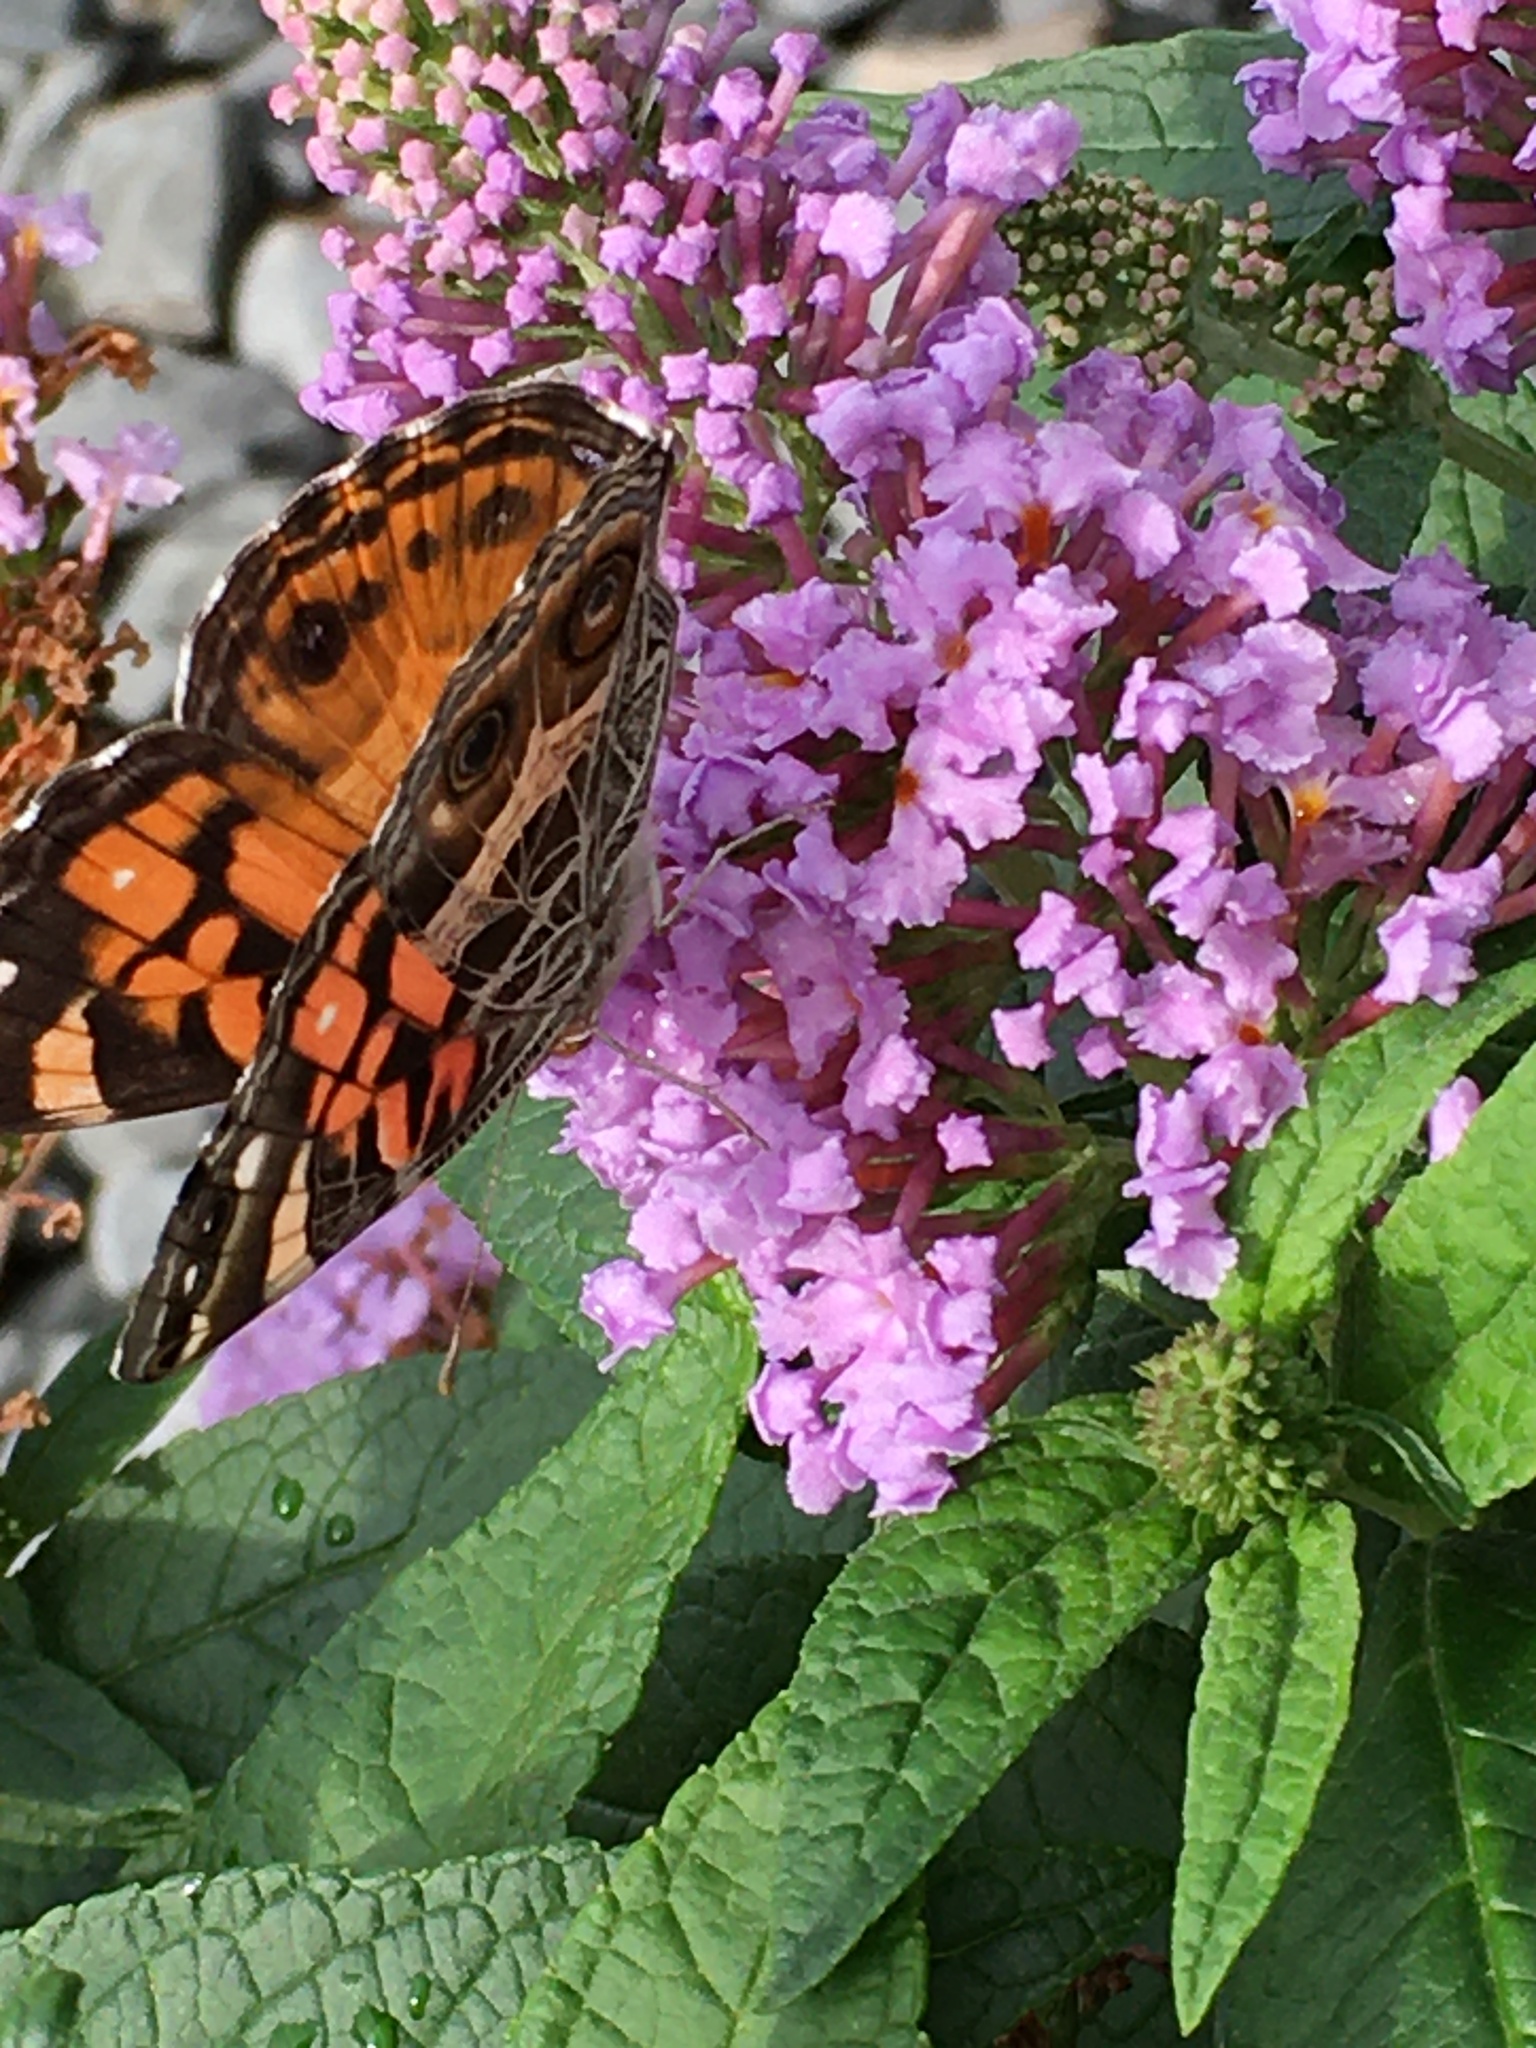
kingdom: Animalia
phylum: Arthropoda
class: Insecta
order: Lepidoptera
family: Nymphalidae
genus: Vanessa
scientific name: Vanessa virginiensis
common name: American lady
